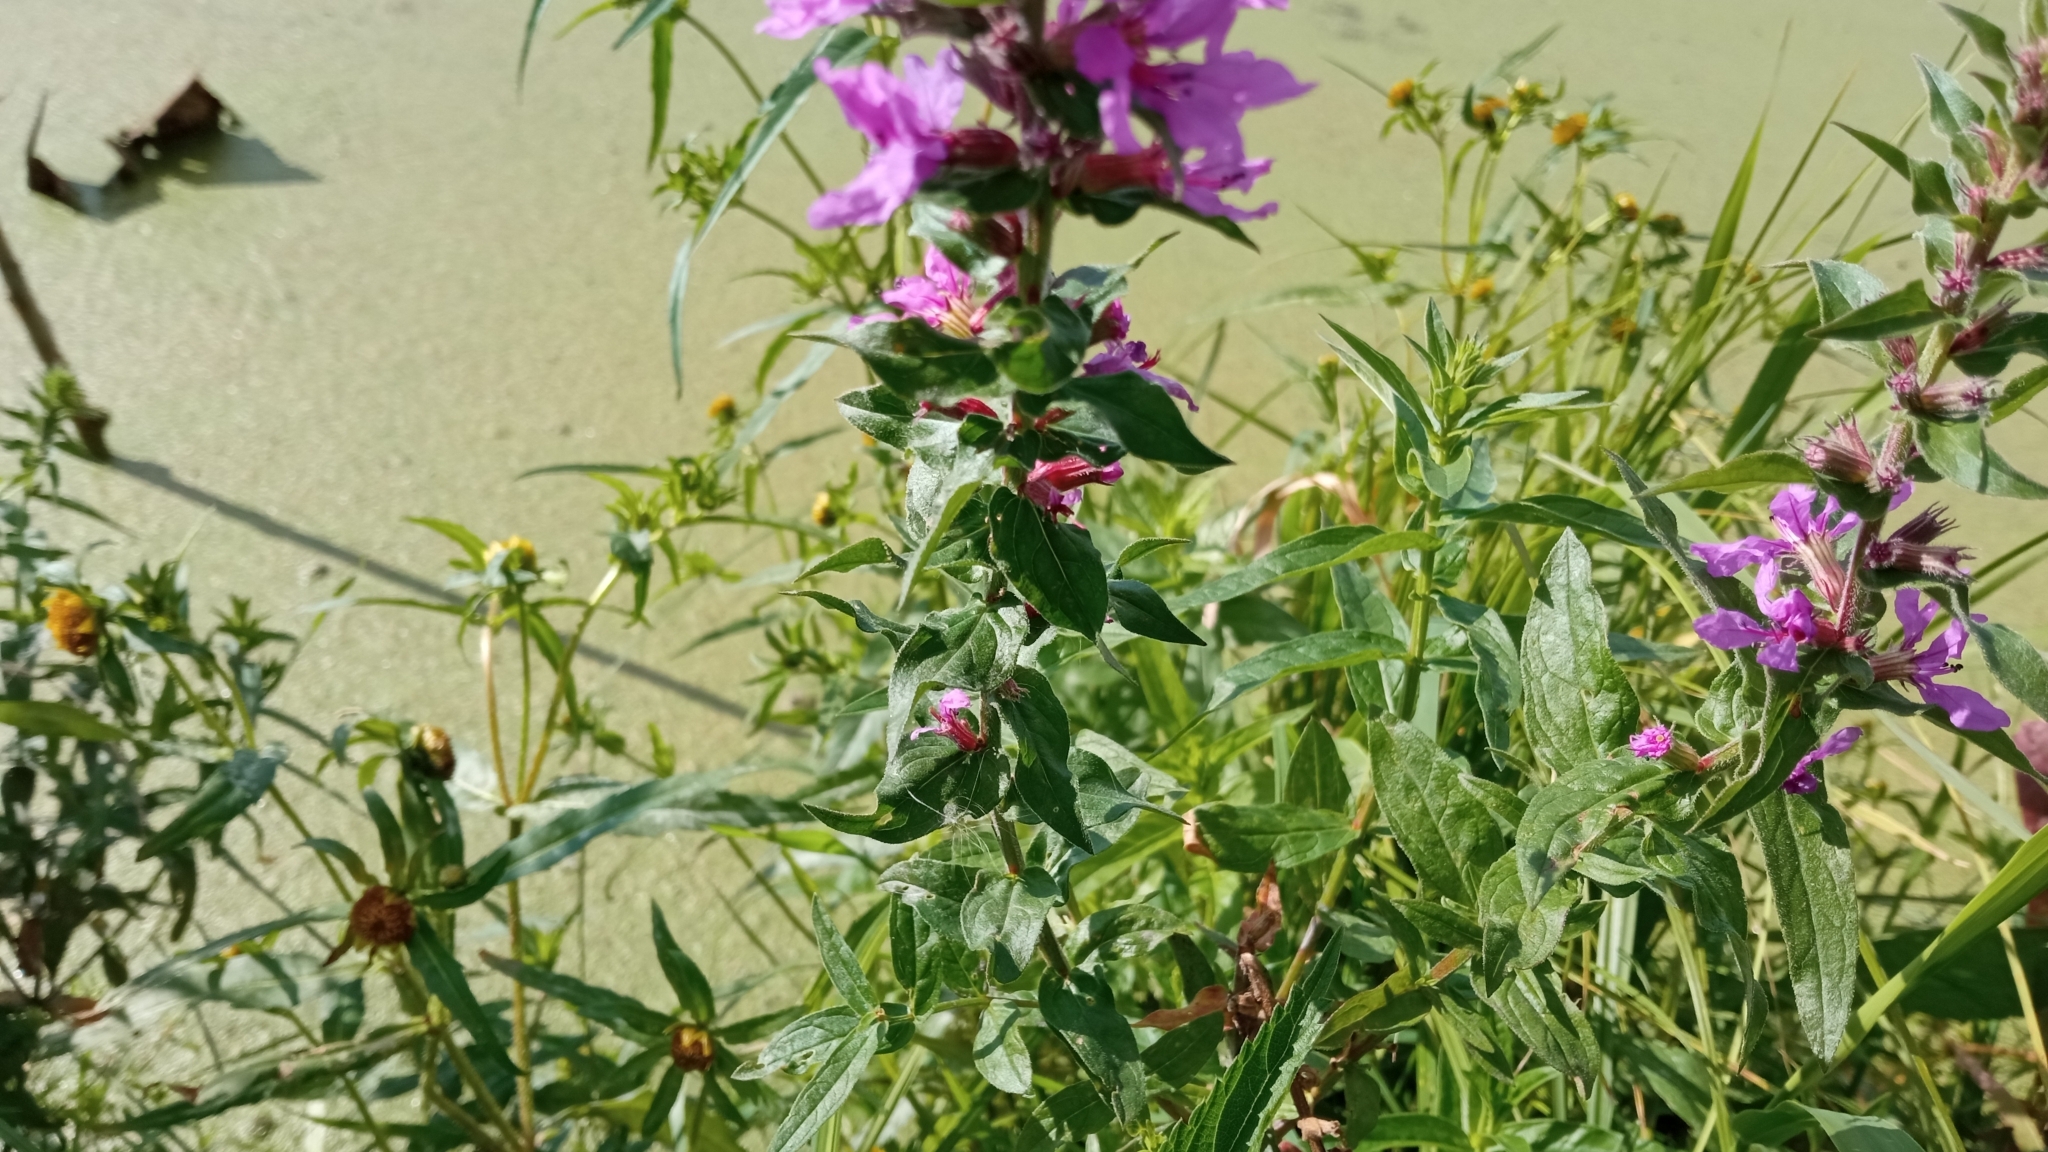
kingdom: Plantae
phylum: Tracheophyta
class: Magnoliopsida
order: Myrtales
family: Lythraceae
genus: Lythrum
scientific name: Lythrum salicaria
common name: Purple loosestrife
